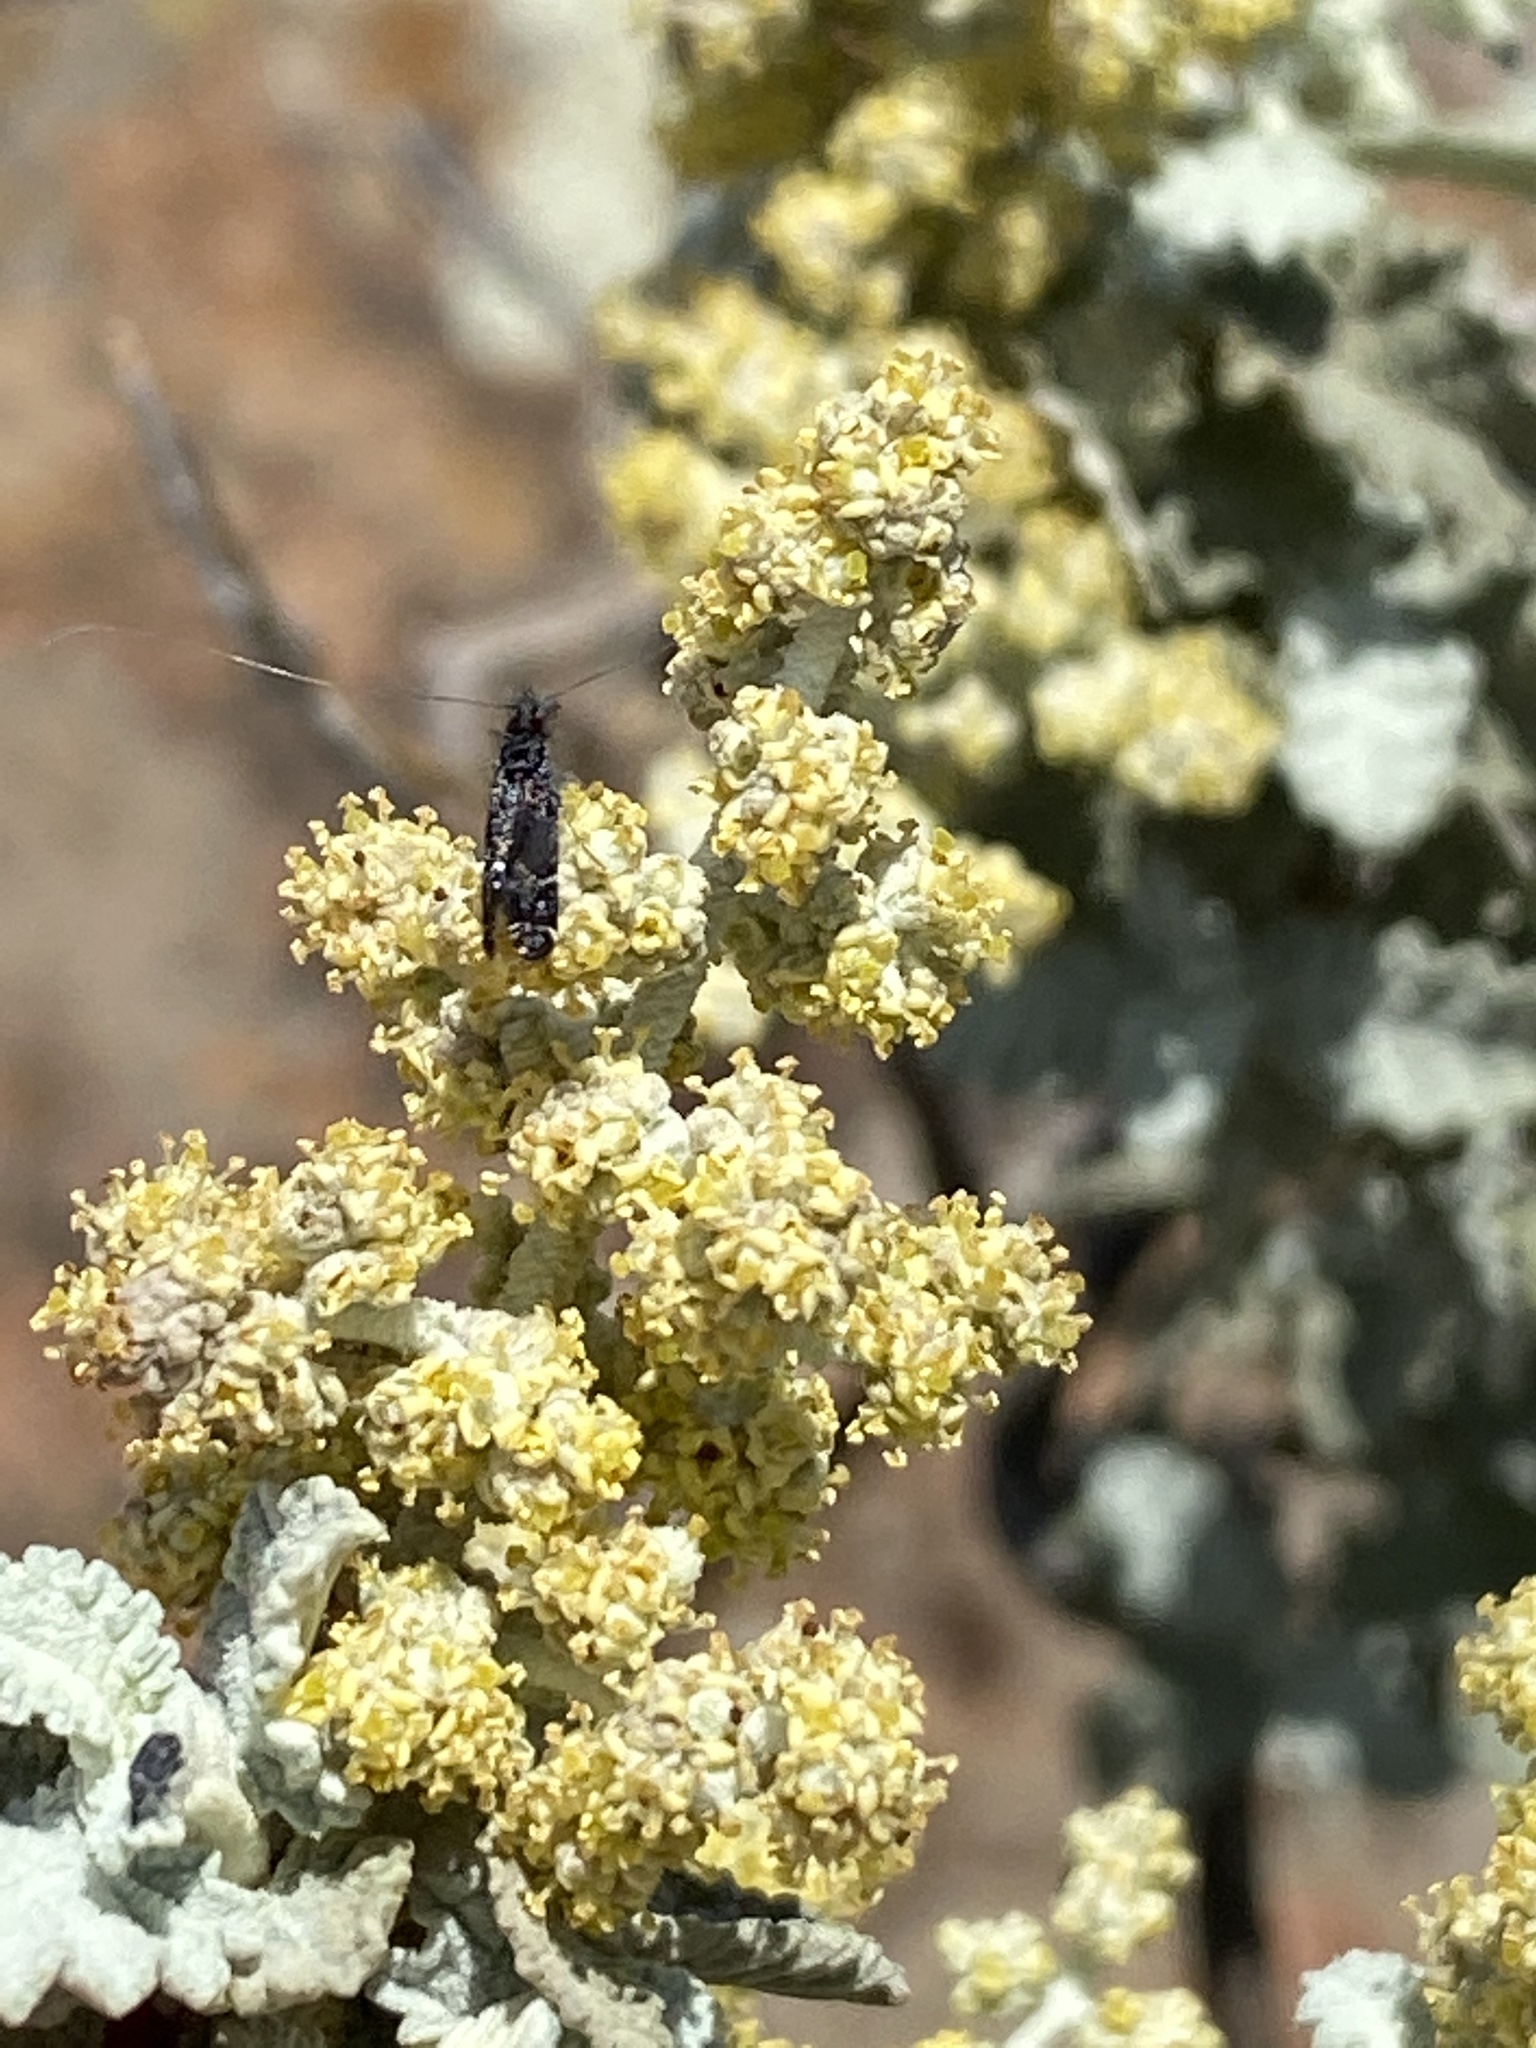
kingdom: Plantae
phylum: Tracheophyta
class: Magnoliopsida
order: Lamiales
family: Scrophulariaceae
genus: Buddleja
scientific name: Buddleja glomerata
